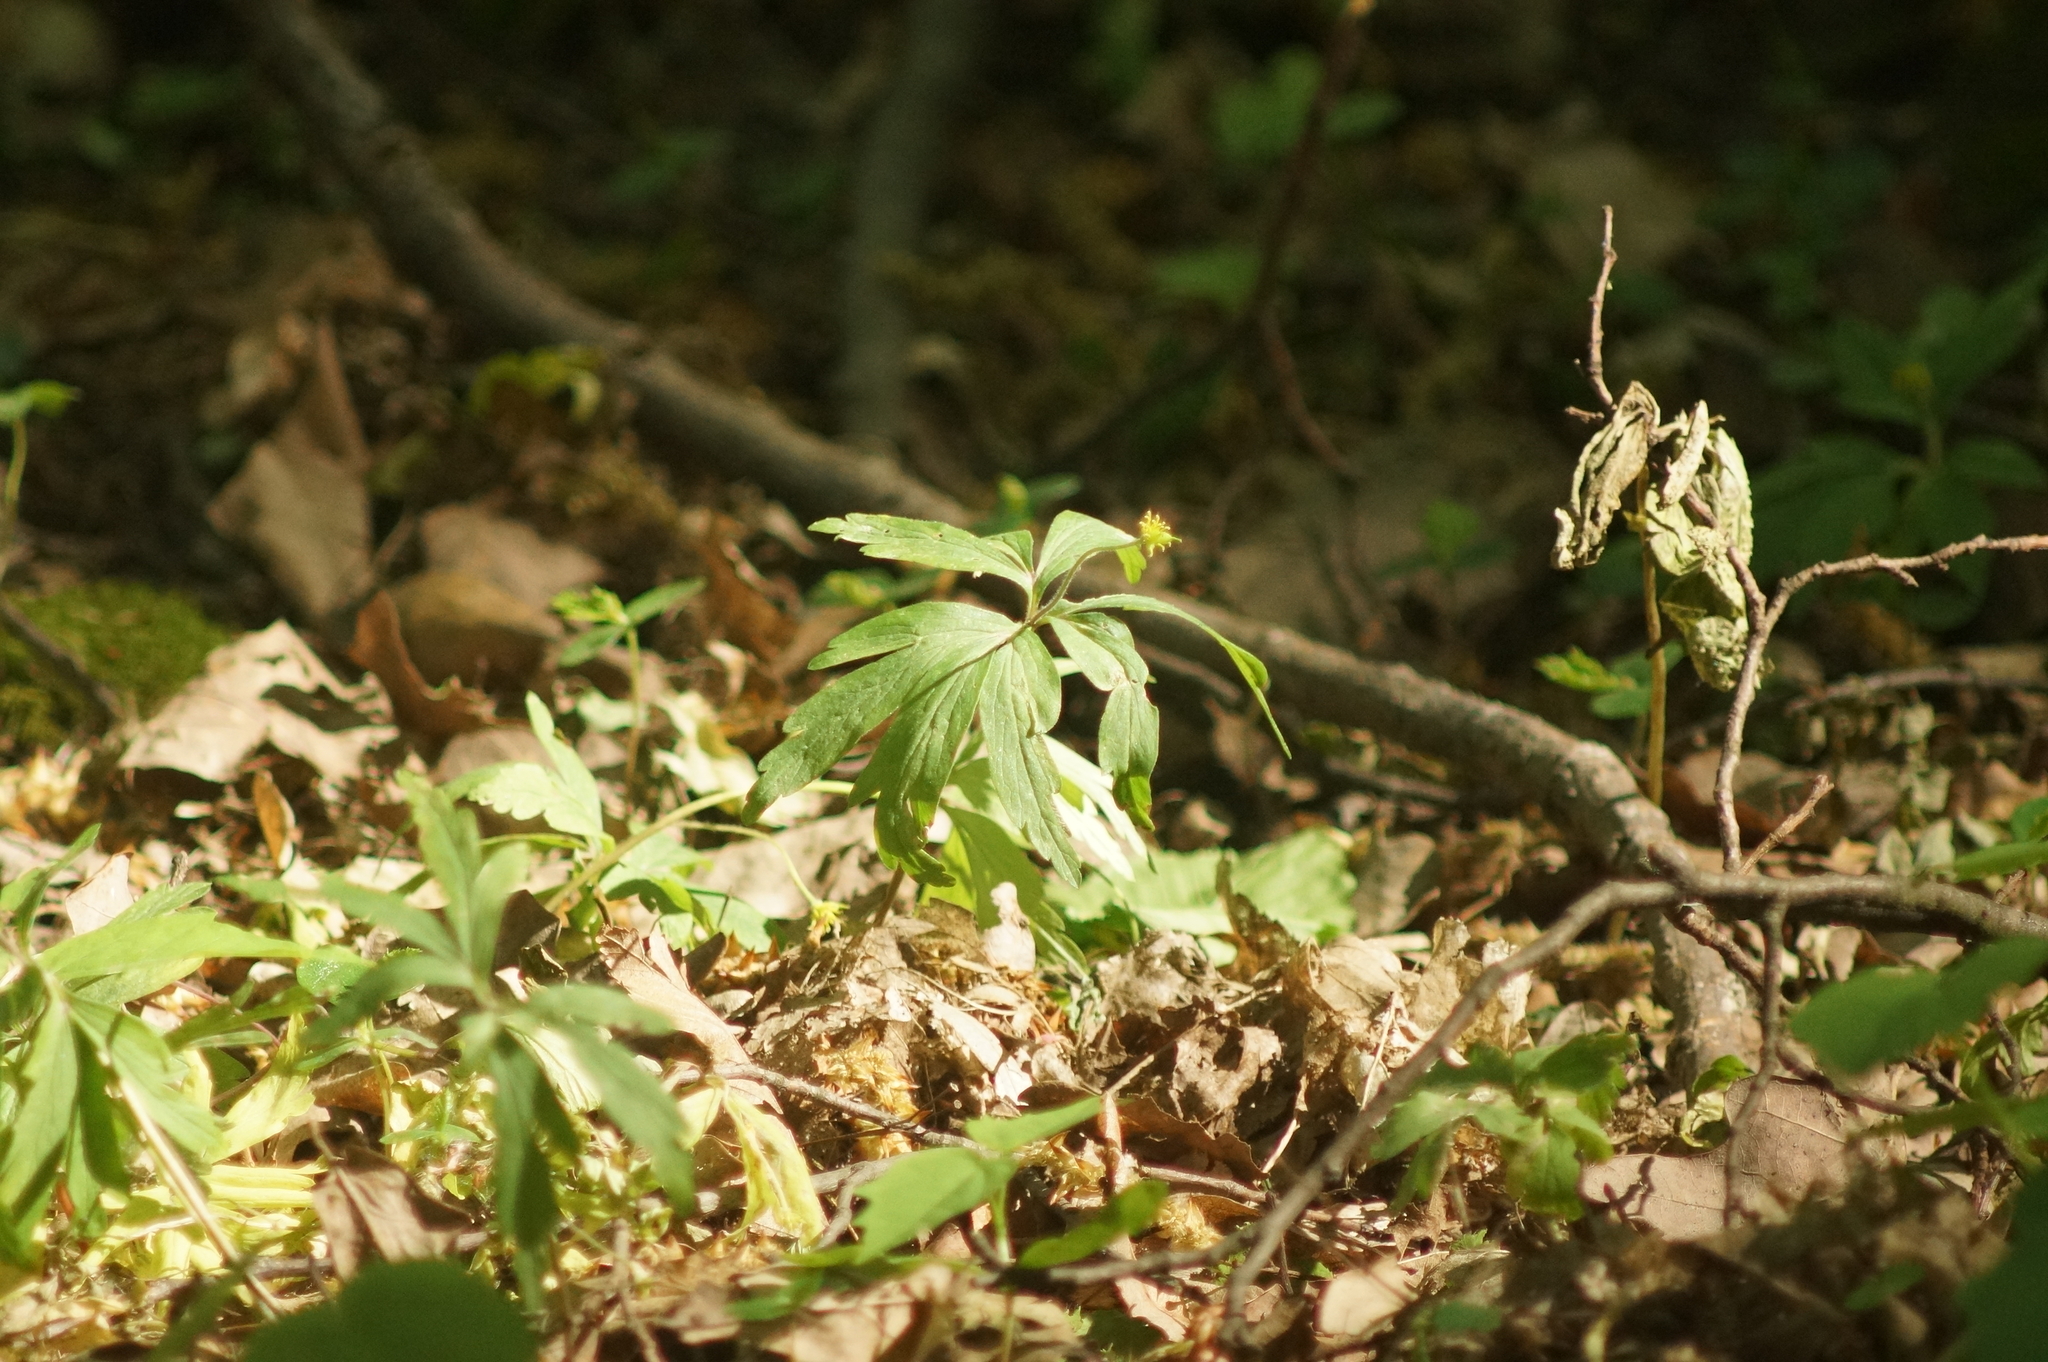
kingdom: Plantae
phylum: Tracheophyta
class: Magnoliopsida
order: Ranunculales
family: Ranunculaceae
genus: Anemone
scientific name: Anemone ranunculoides
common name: Yellow anemone
